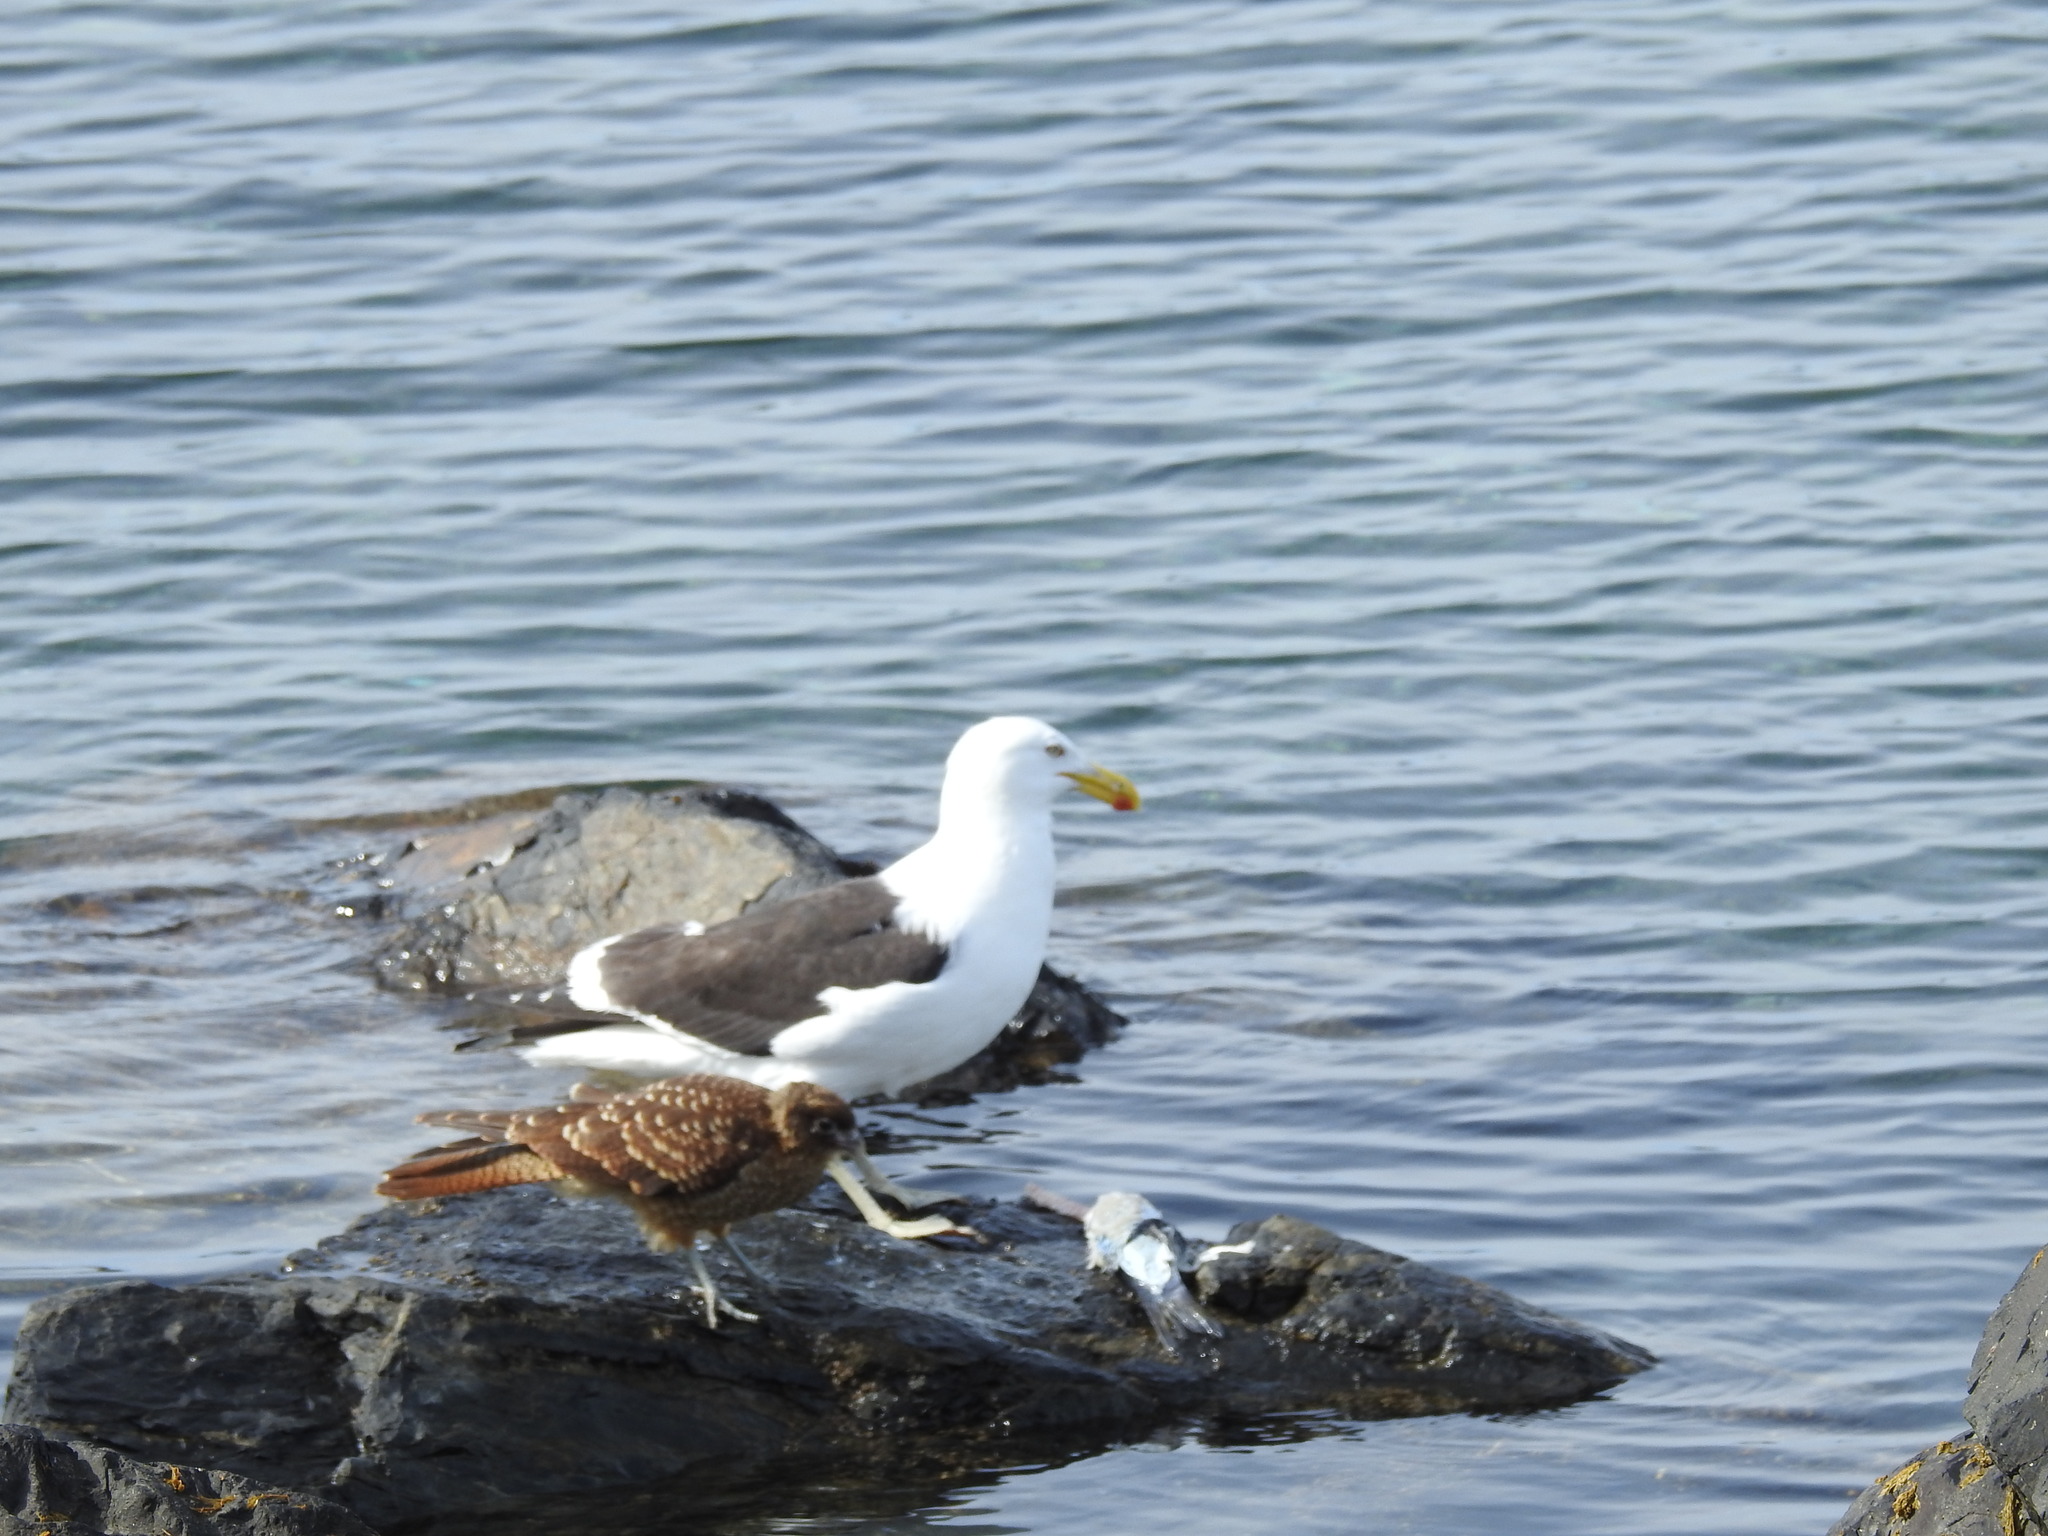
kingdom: Animalia
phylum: Chordata
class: Aves
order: Charadriiformes
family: Laridae
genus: Larus
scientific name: Larus dominicanus
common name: Kelp gull
